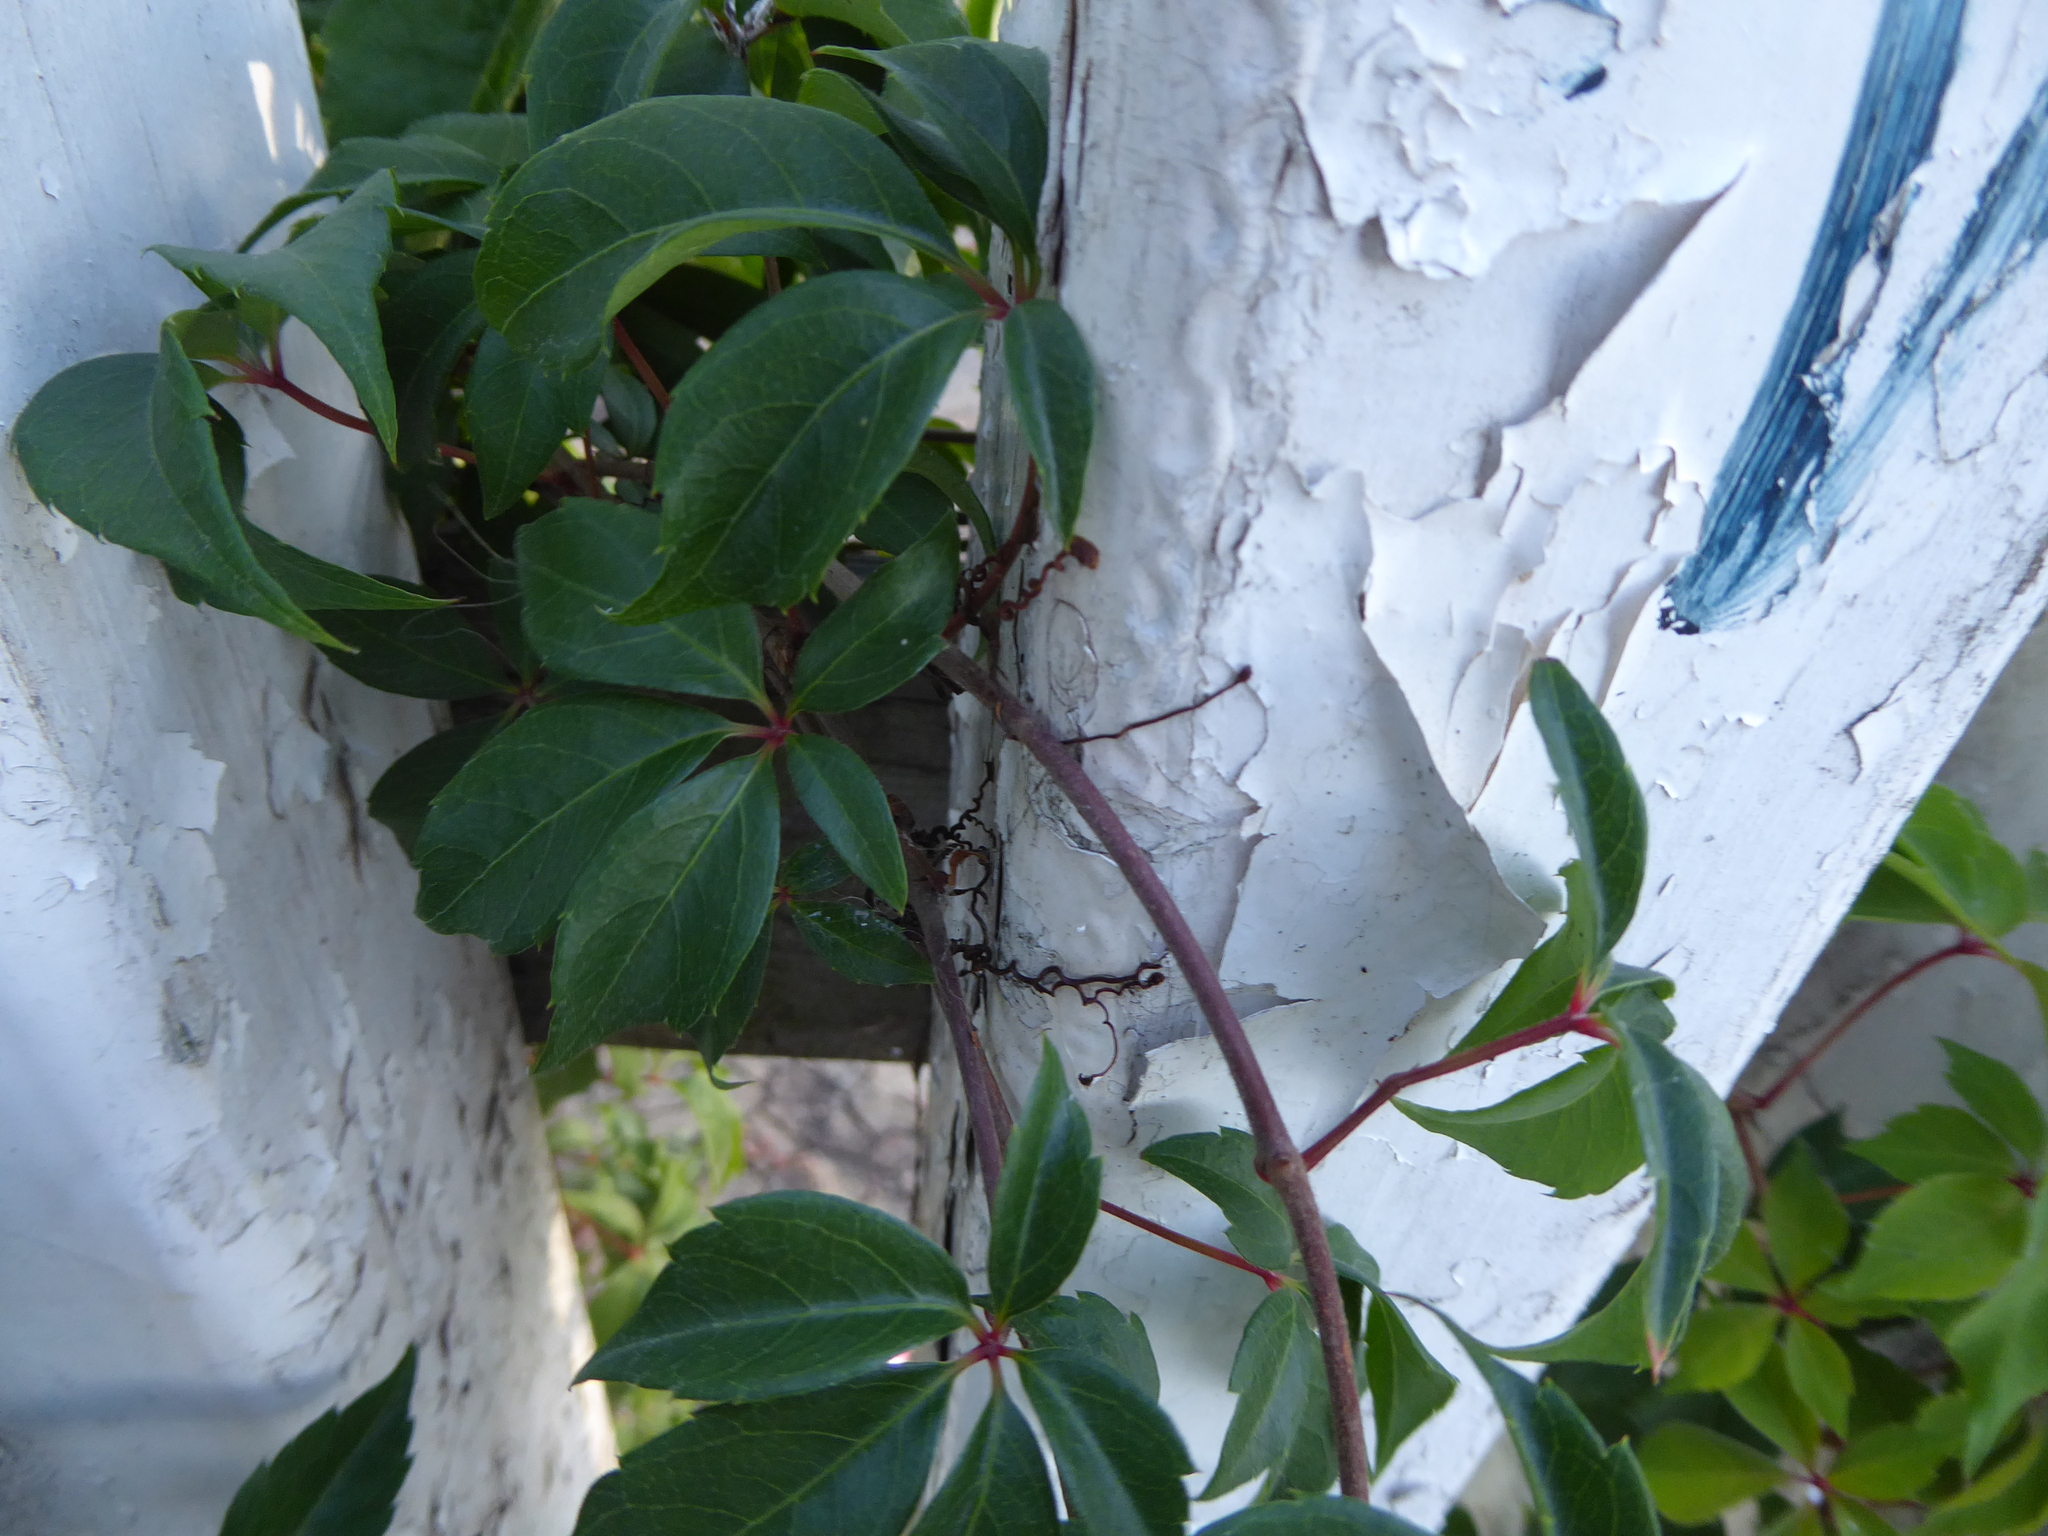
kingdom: Plantae
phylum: Tracheophyta
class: Magnoliopsida
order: Vitales
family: Vitaceae
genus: Parthenocissus
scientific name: Parthenocissus quinquefolia
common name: Virginia-creeper
